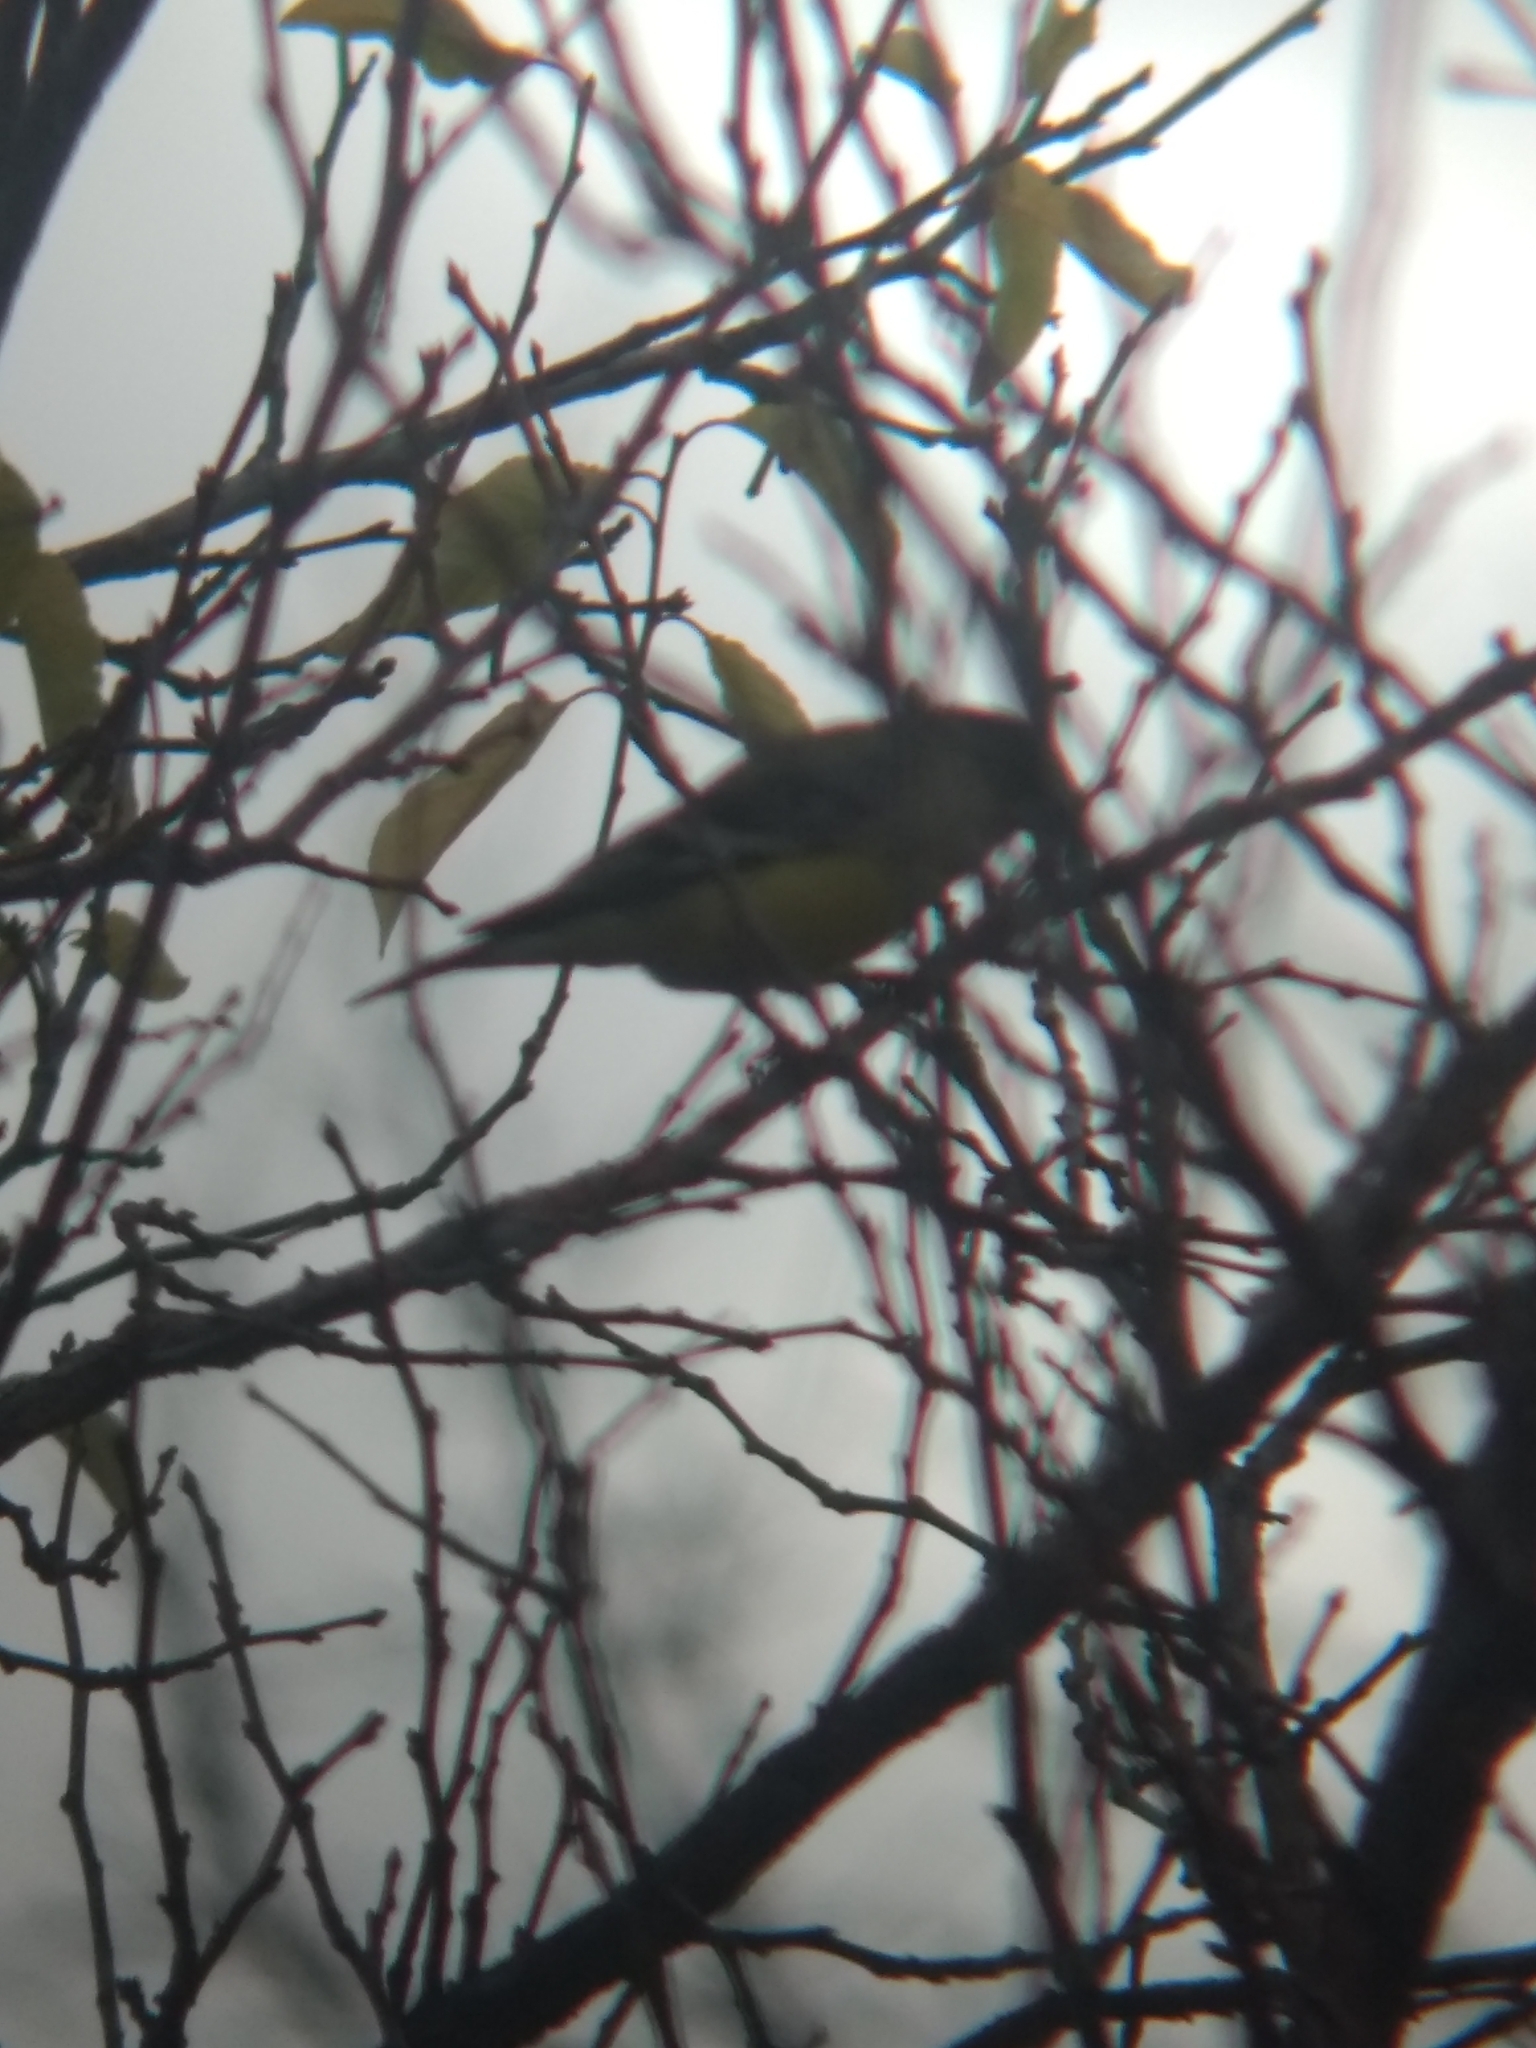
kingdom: Animalia
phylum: Chordata
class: Aves
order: Passeriformes
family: Fringillidae
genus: Spinus
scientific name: Spinus psaltria
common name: Lesser goldfinch
